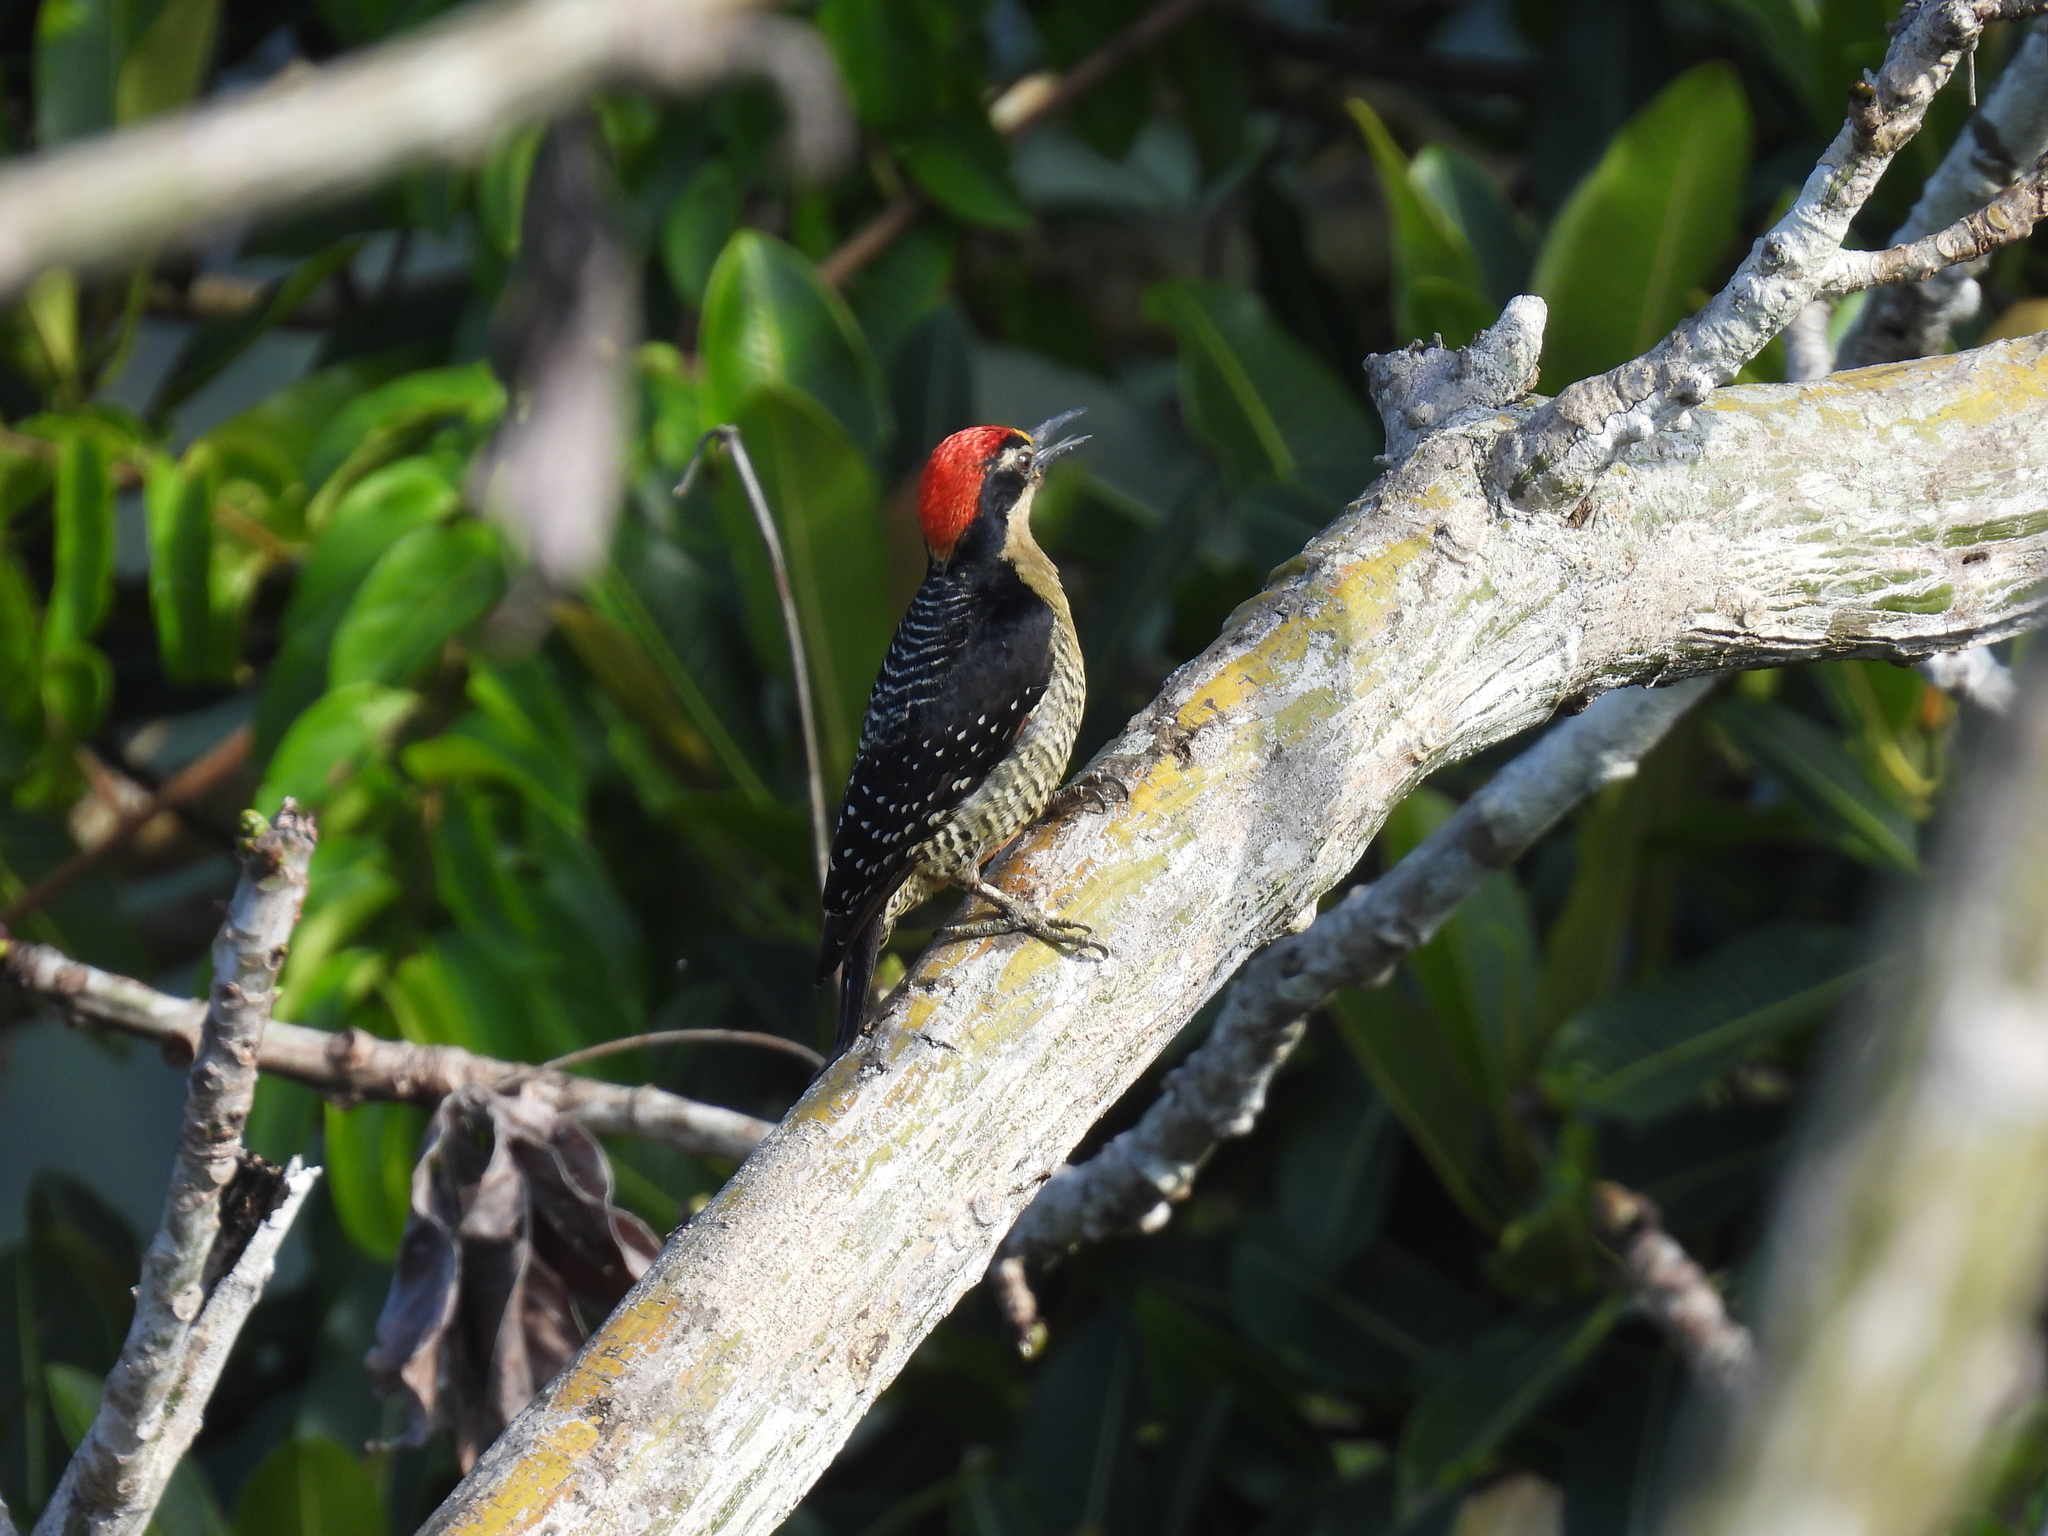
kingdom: Animalia
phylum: Chordata
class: Aves
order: Piciformes
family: Picidae
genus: Melanerpes
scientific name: Melanerpes pucherani
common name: Black-cheeked woodpecker
